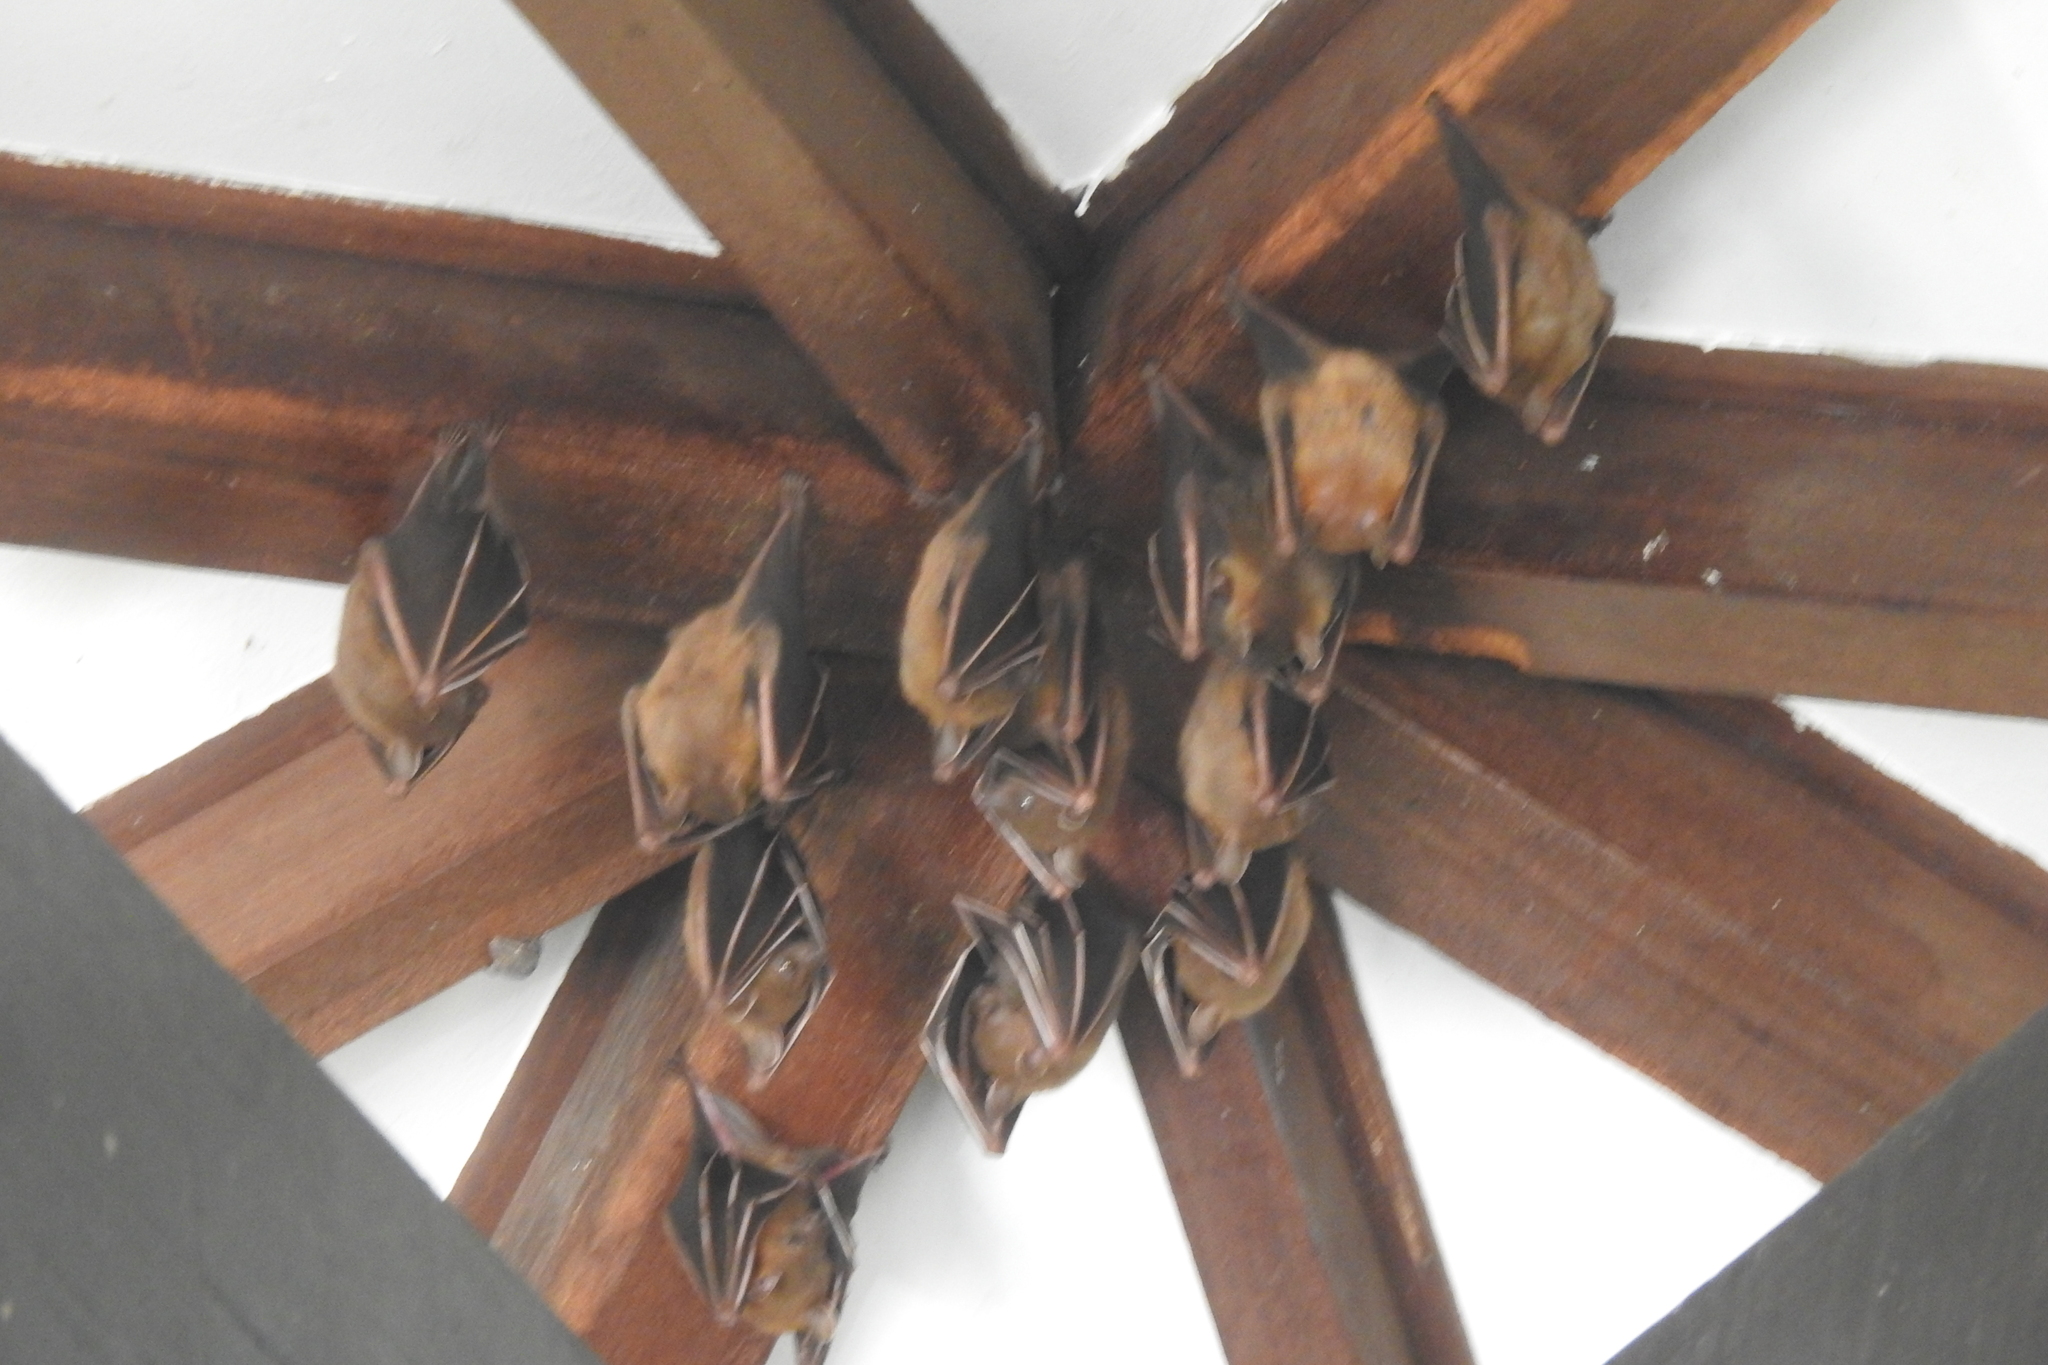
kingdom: Animalia
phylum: Chordata
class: Mammalia
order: Chiroptera
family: Pteropodidae
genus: Cynopterus
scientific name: Cynopterus brachyotis
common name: Lesser short-nosed fruit bat
